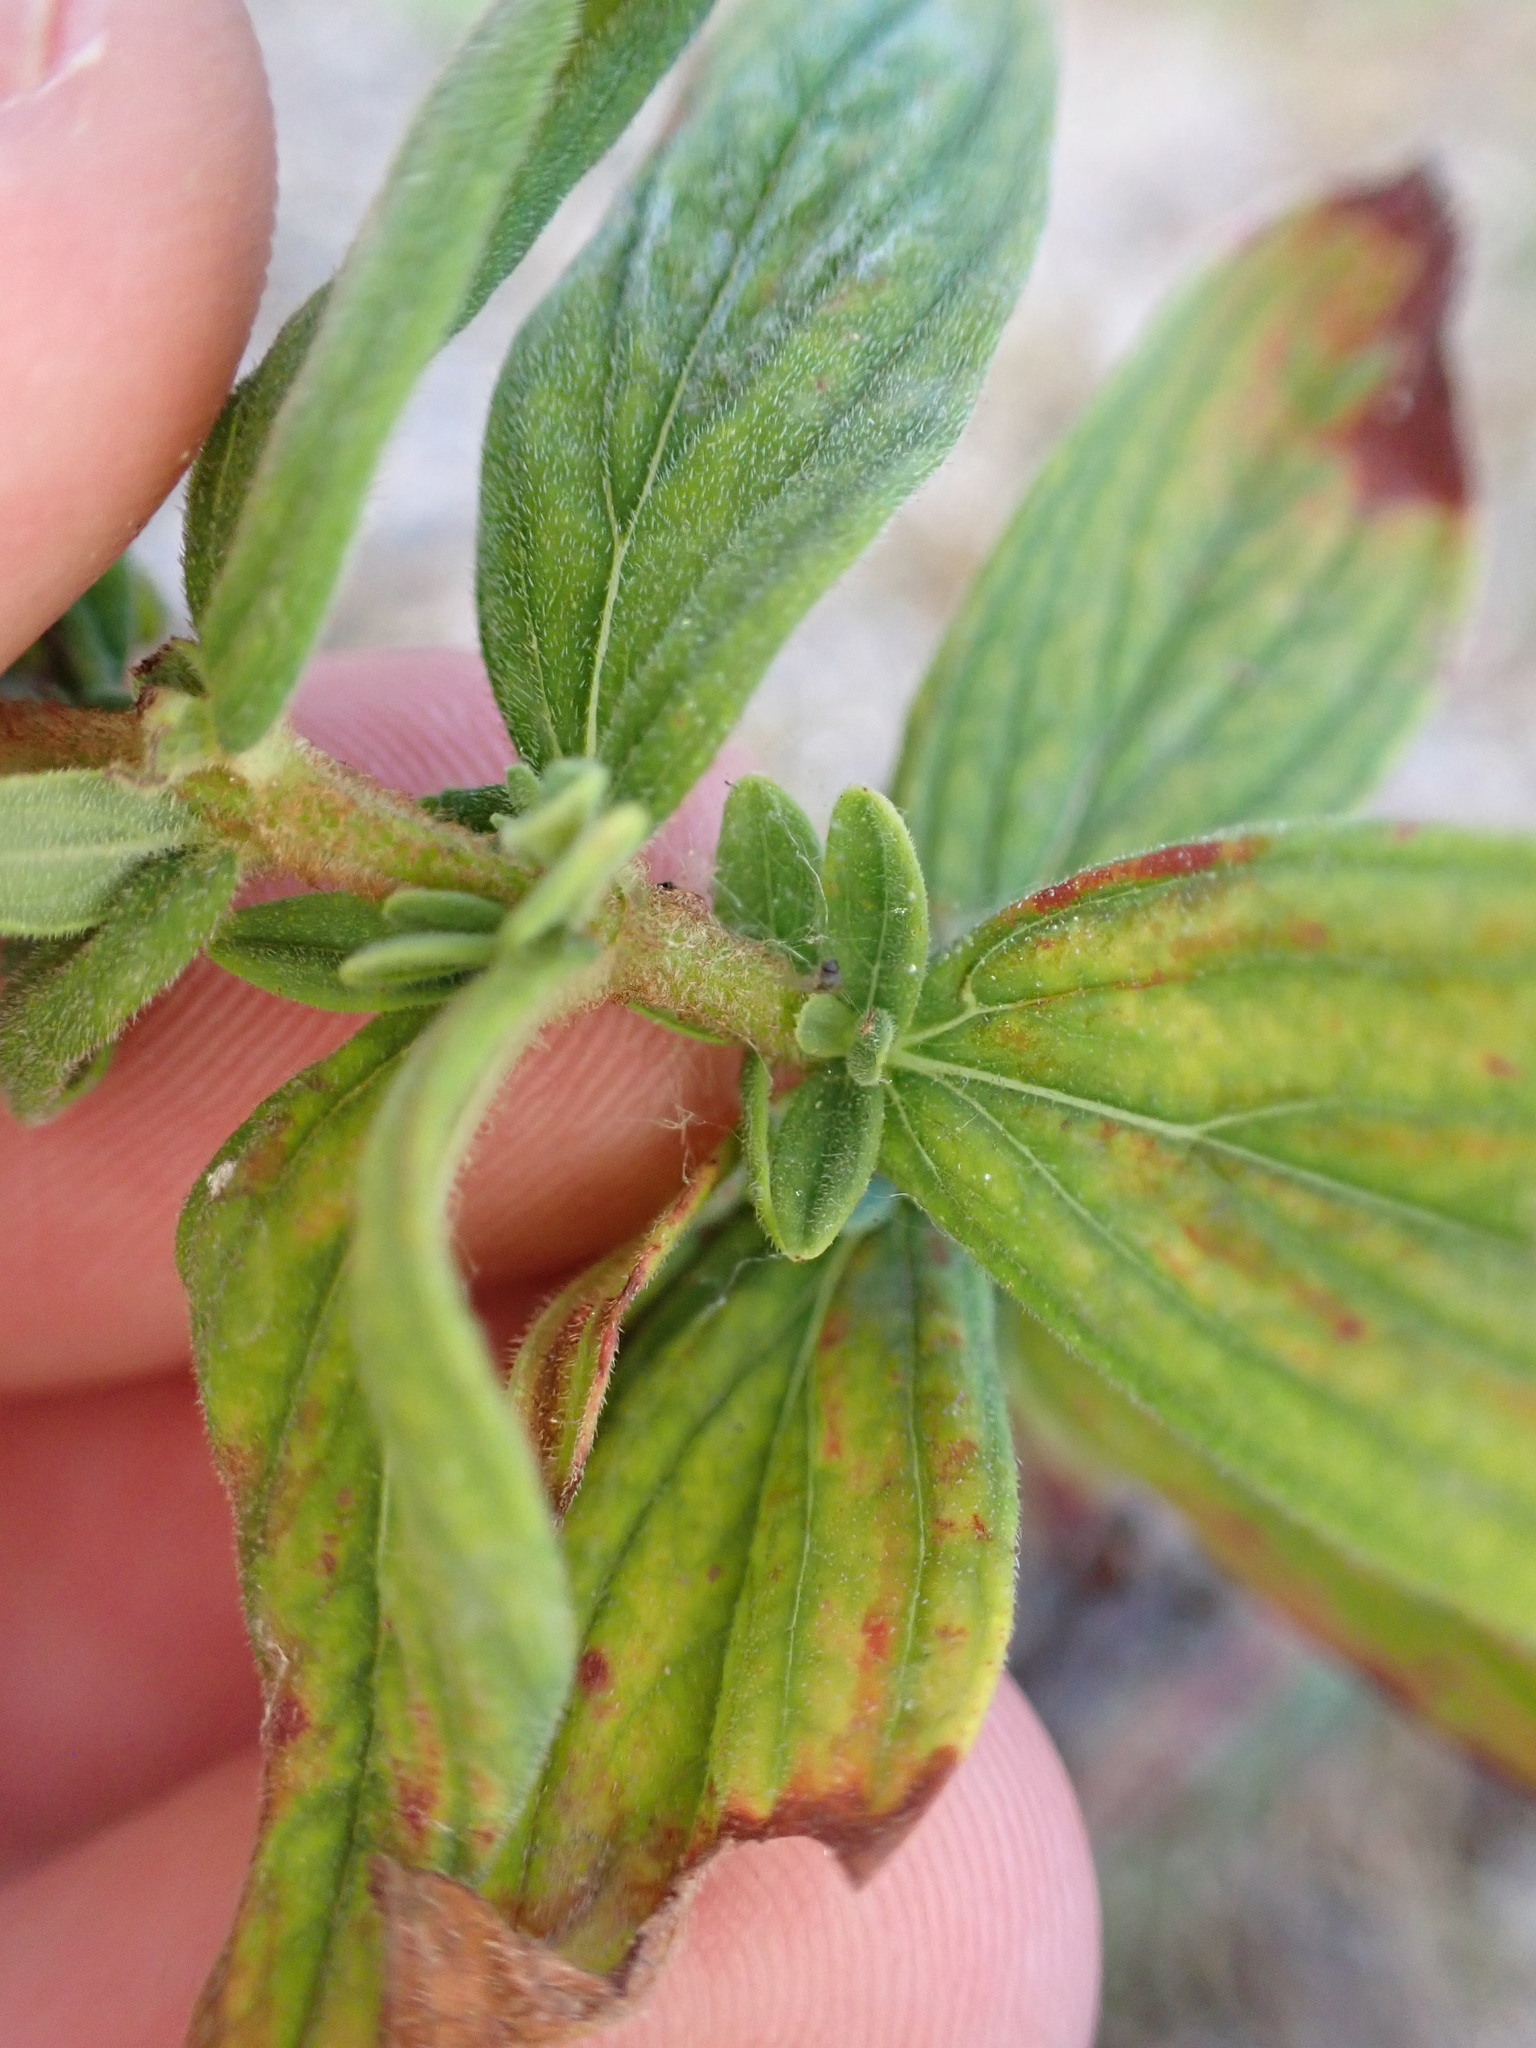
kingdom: Plantae
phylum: Tracheophyta
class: Magnoliopsida
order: Malpighiales
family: Hypericaceae
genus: Hypericum
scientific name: Hypericum hirsutum
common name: Hairy st. john's-wort
